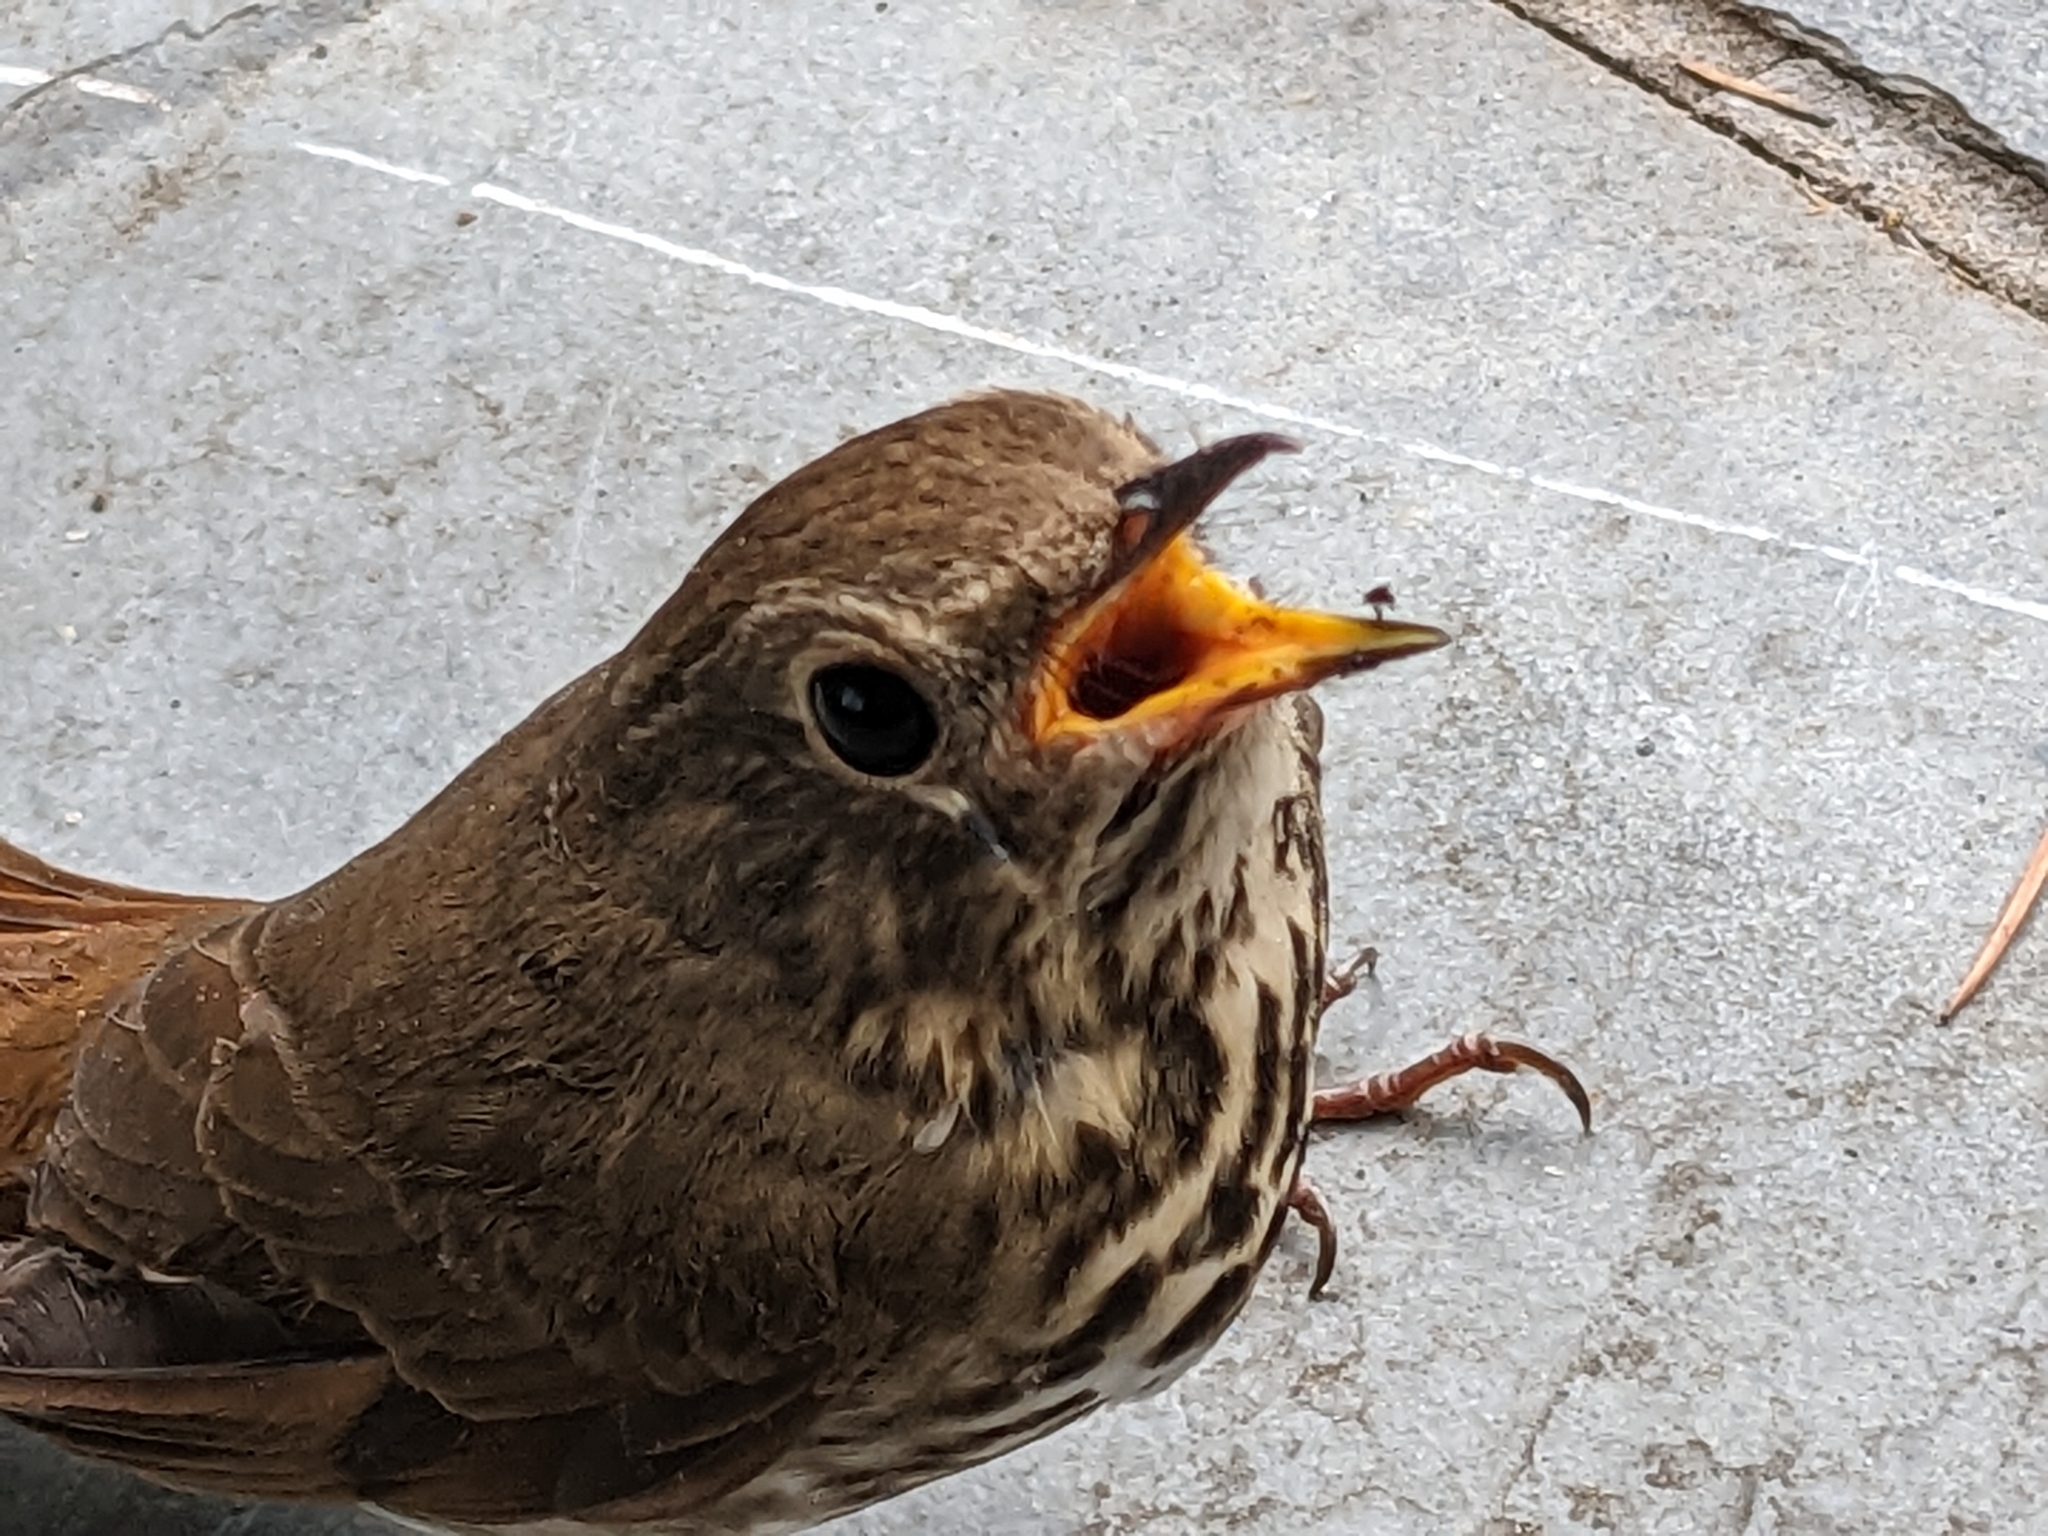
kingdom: Animalia
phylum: Chordata
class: Aves
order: Passeriformes
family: Turdidae
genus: Catharus
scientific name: Catharus guttatus
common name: Hermit thrush
